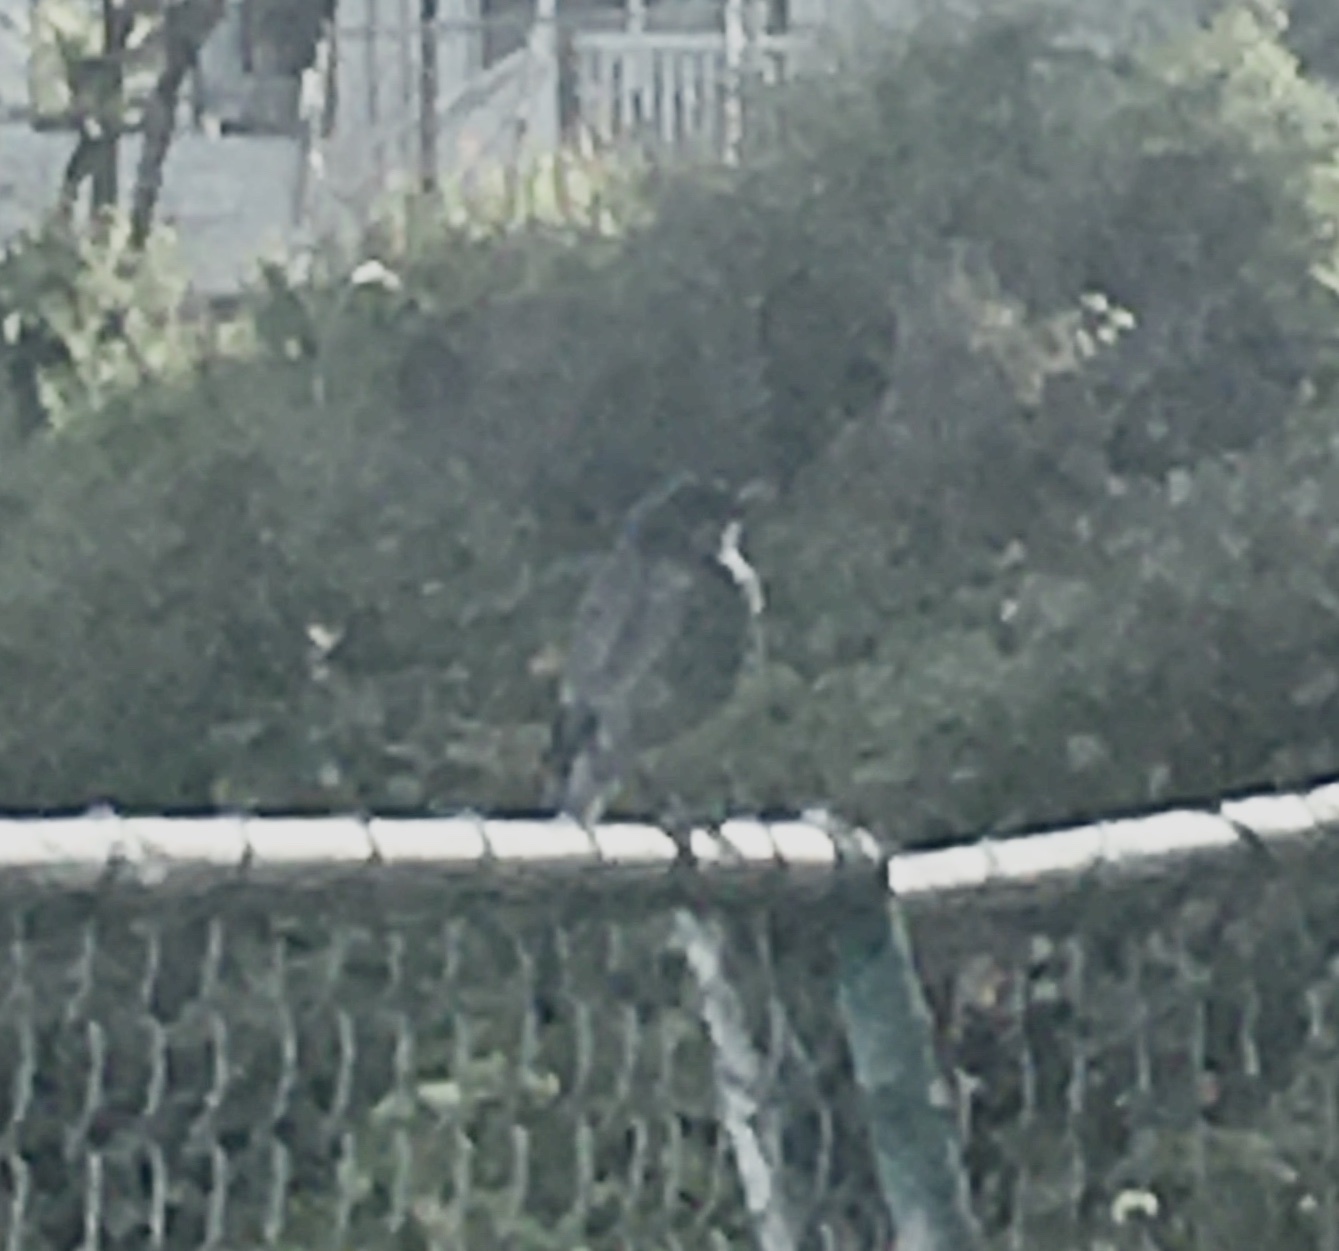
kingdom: Animalia
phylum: Chordata
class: Aves
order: Passeriformes
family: Corvidae
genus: Aphelocoma
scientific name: Aphelocoma californica
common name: California scrub-jay
